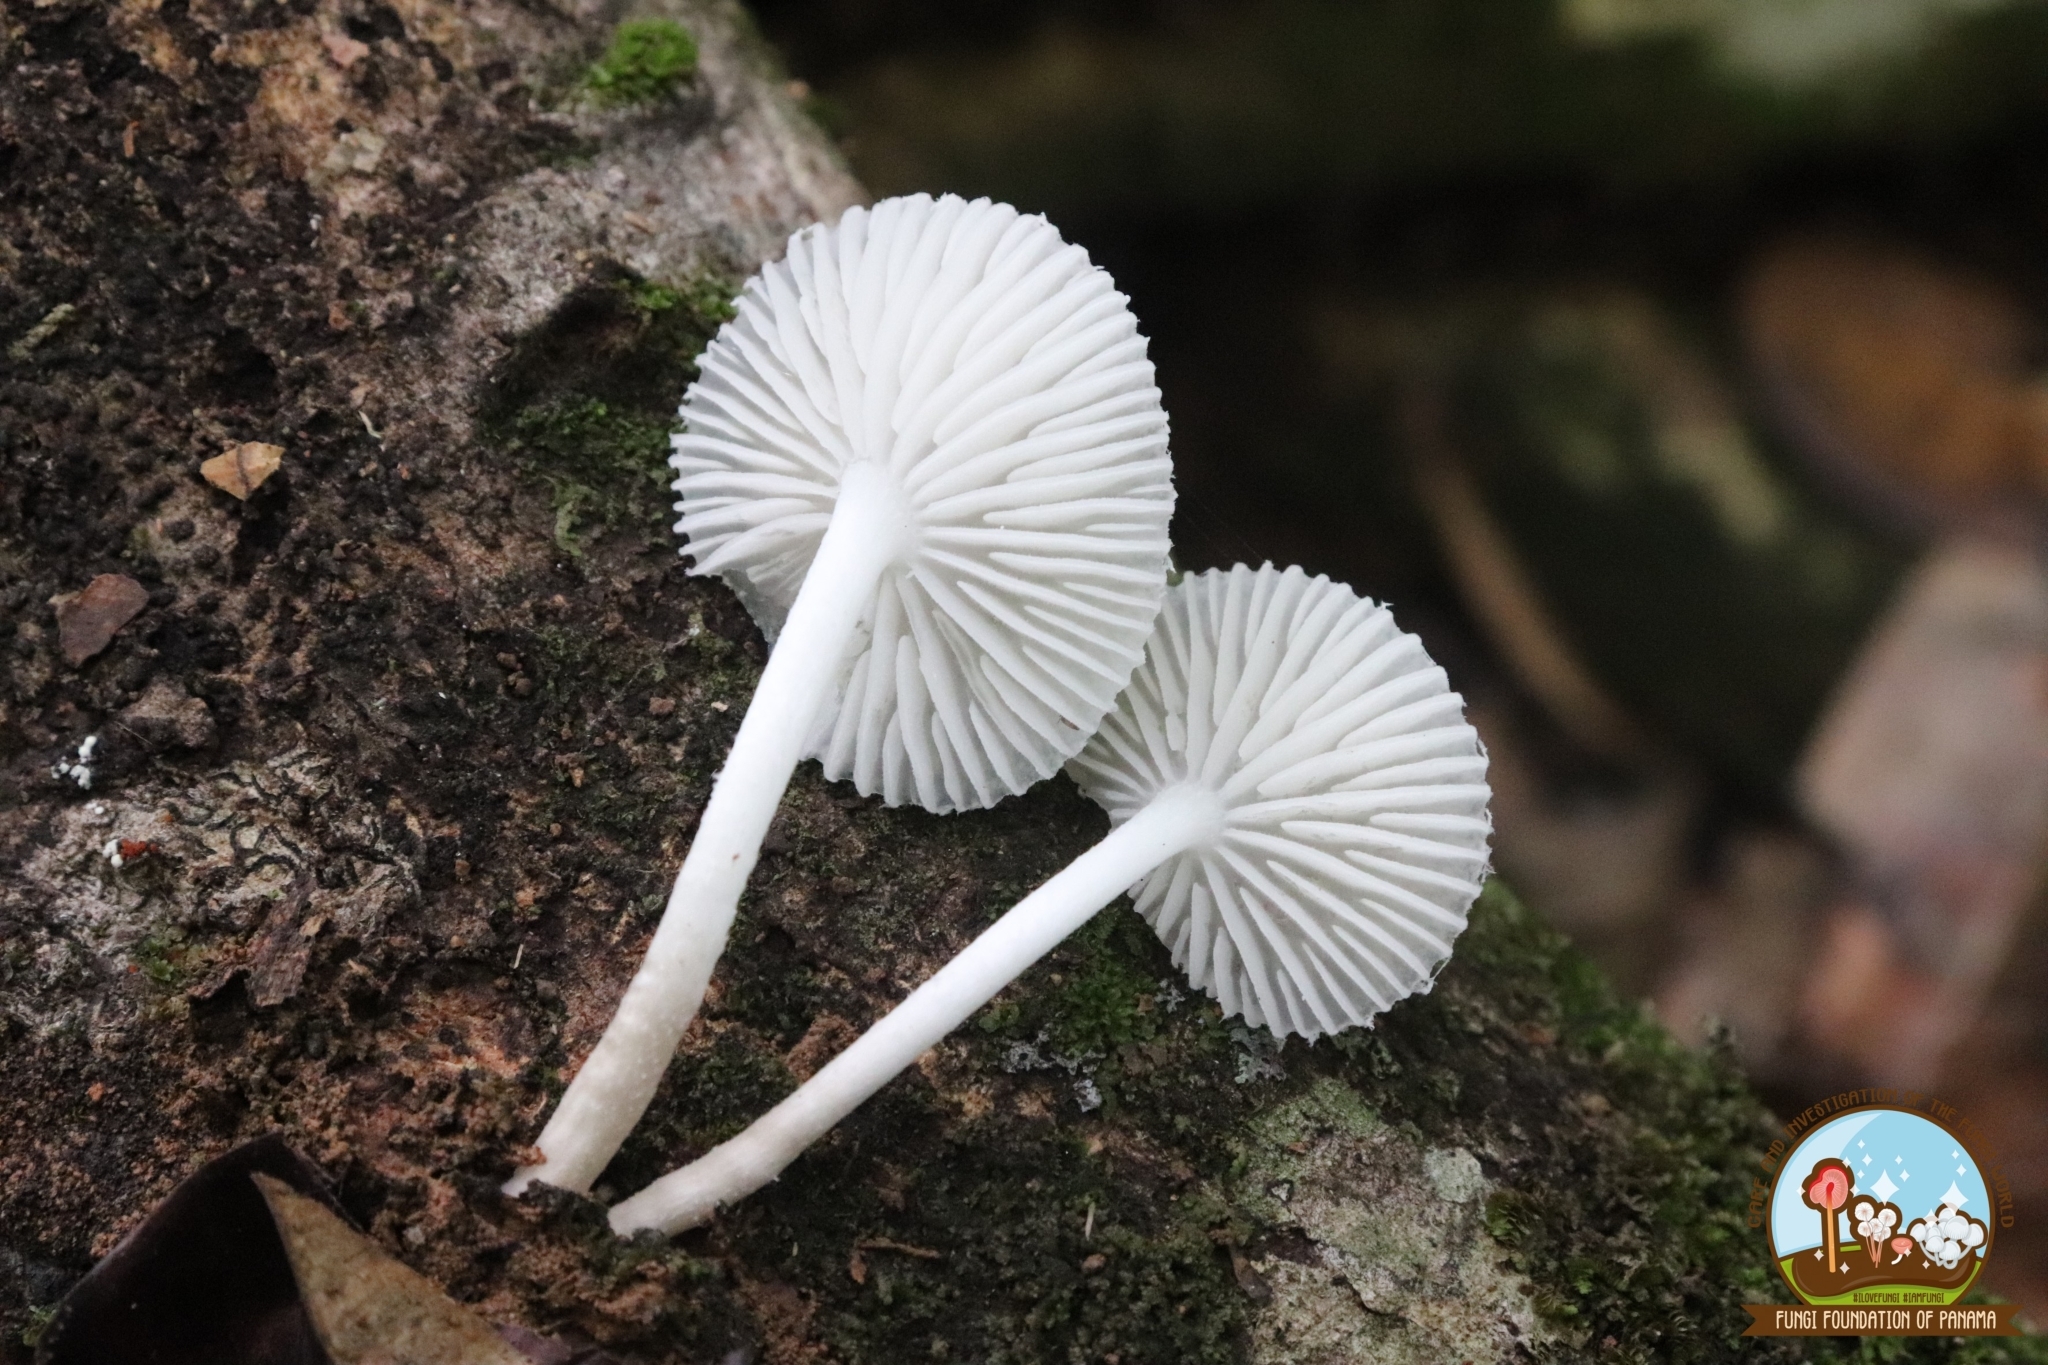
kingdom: Fungi
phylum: Basidiomycota
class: Agaricomycetes
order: Agaricales
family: Physalacriaceae
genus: Oudemansiella
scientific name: Oudemansiella canarii
